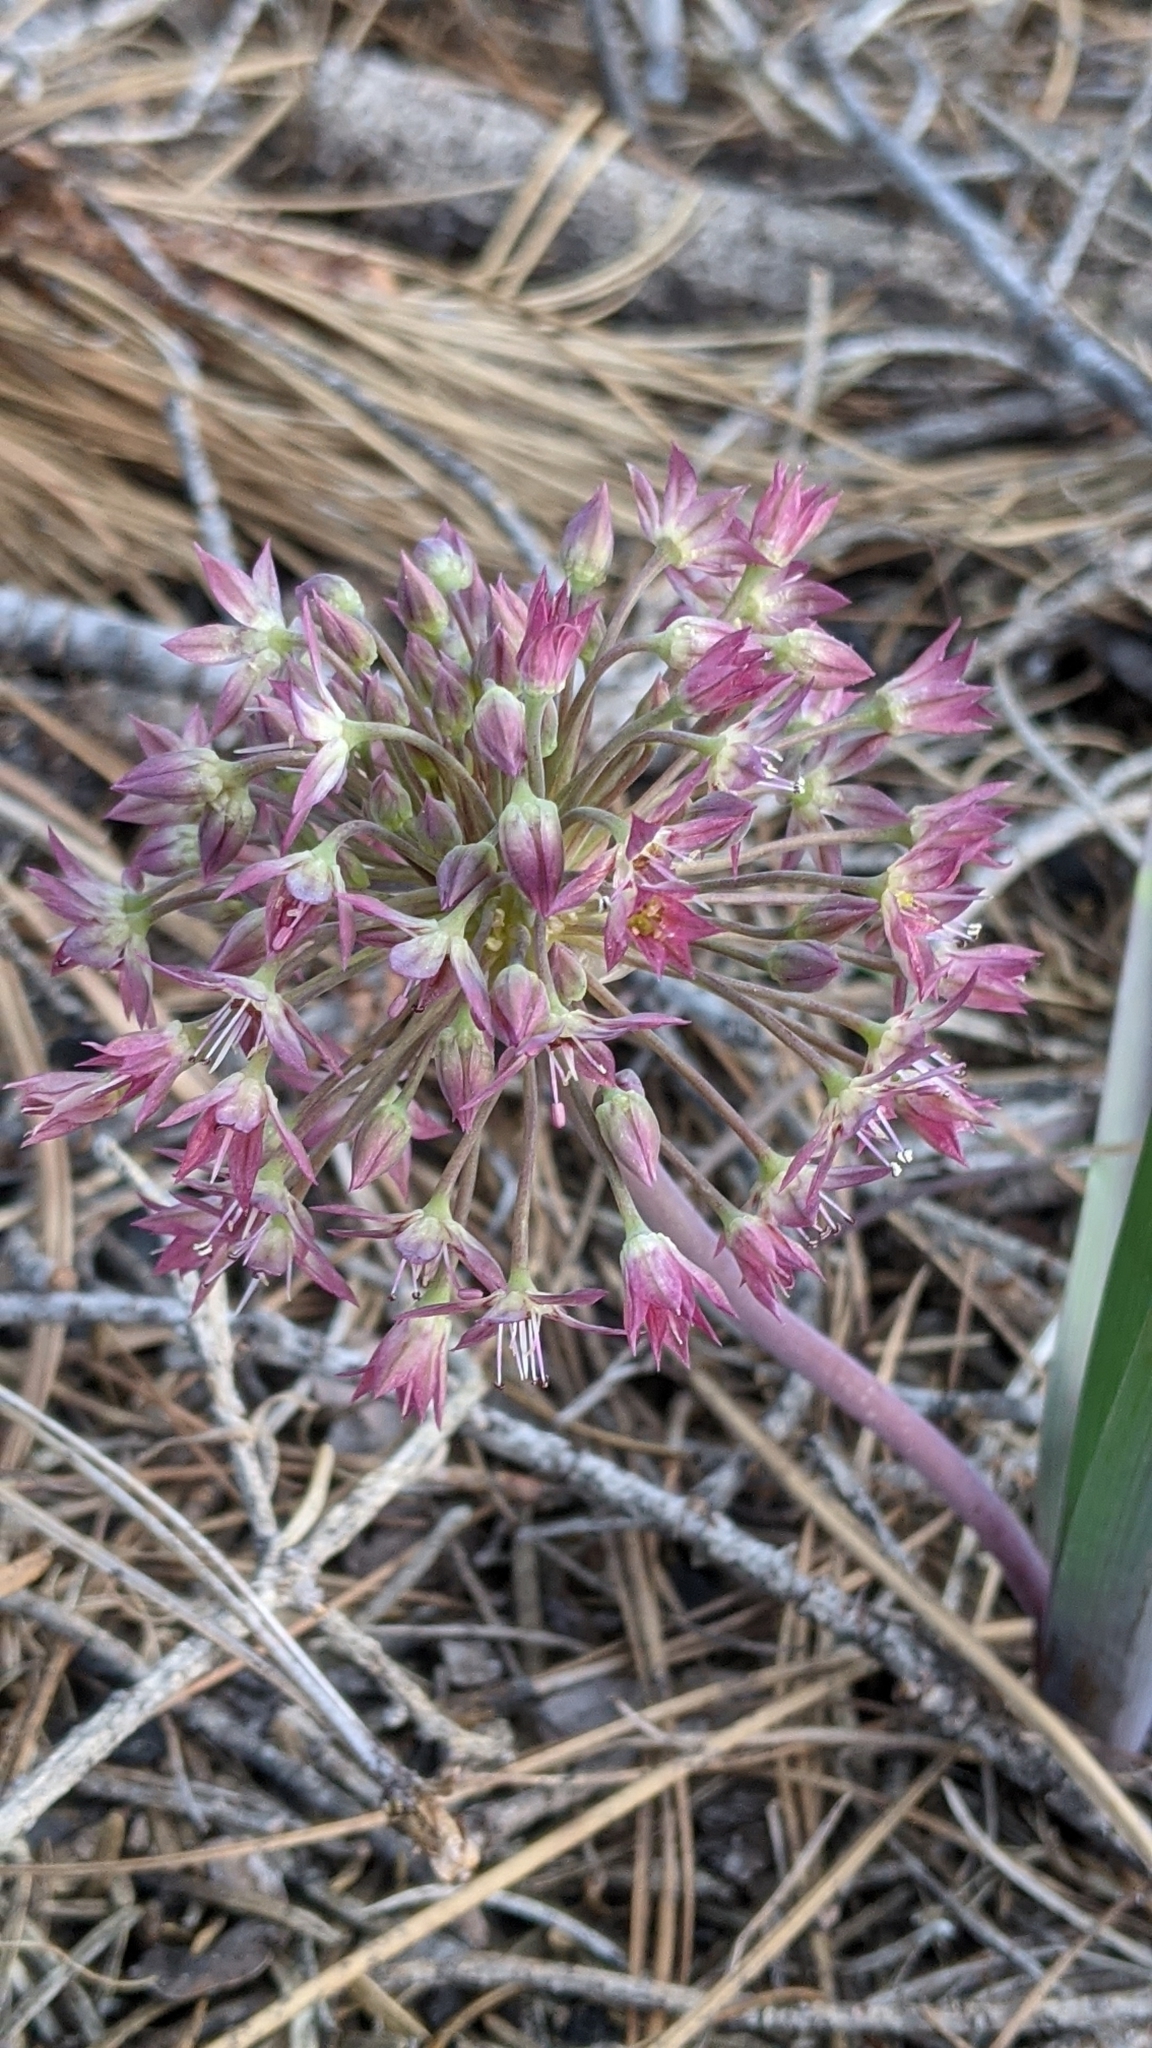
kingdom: Plantae
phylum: Tracheophyta
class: Liliopsida
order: Asparagales
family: Amaryllidaceae
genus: Allium
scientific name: Allium campanulatum
